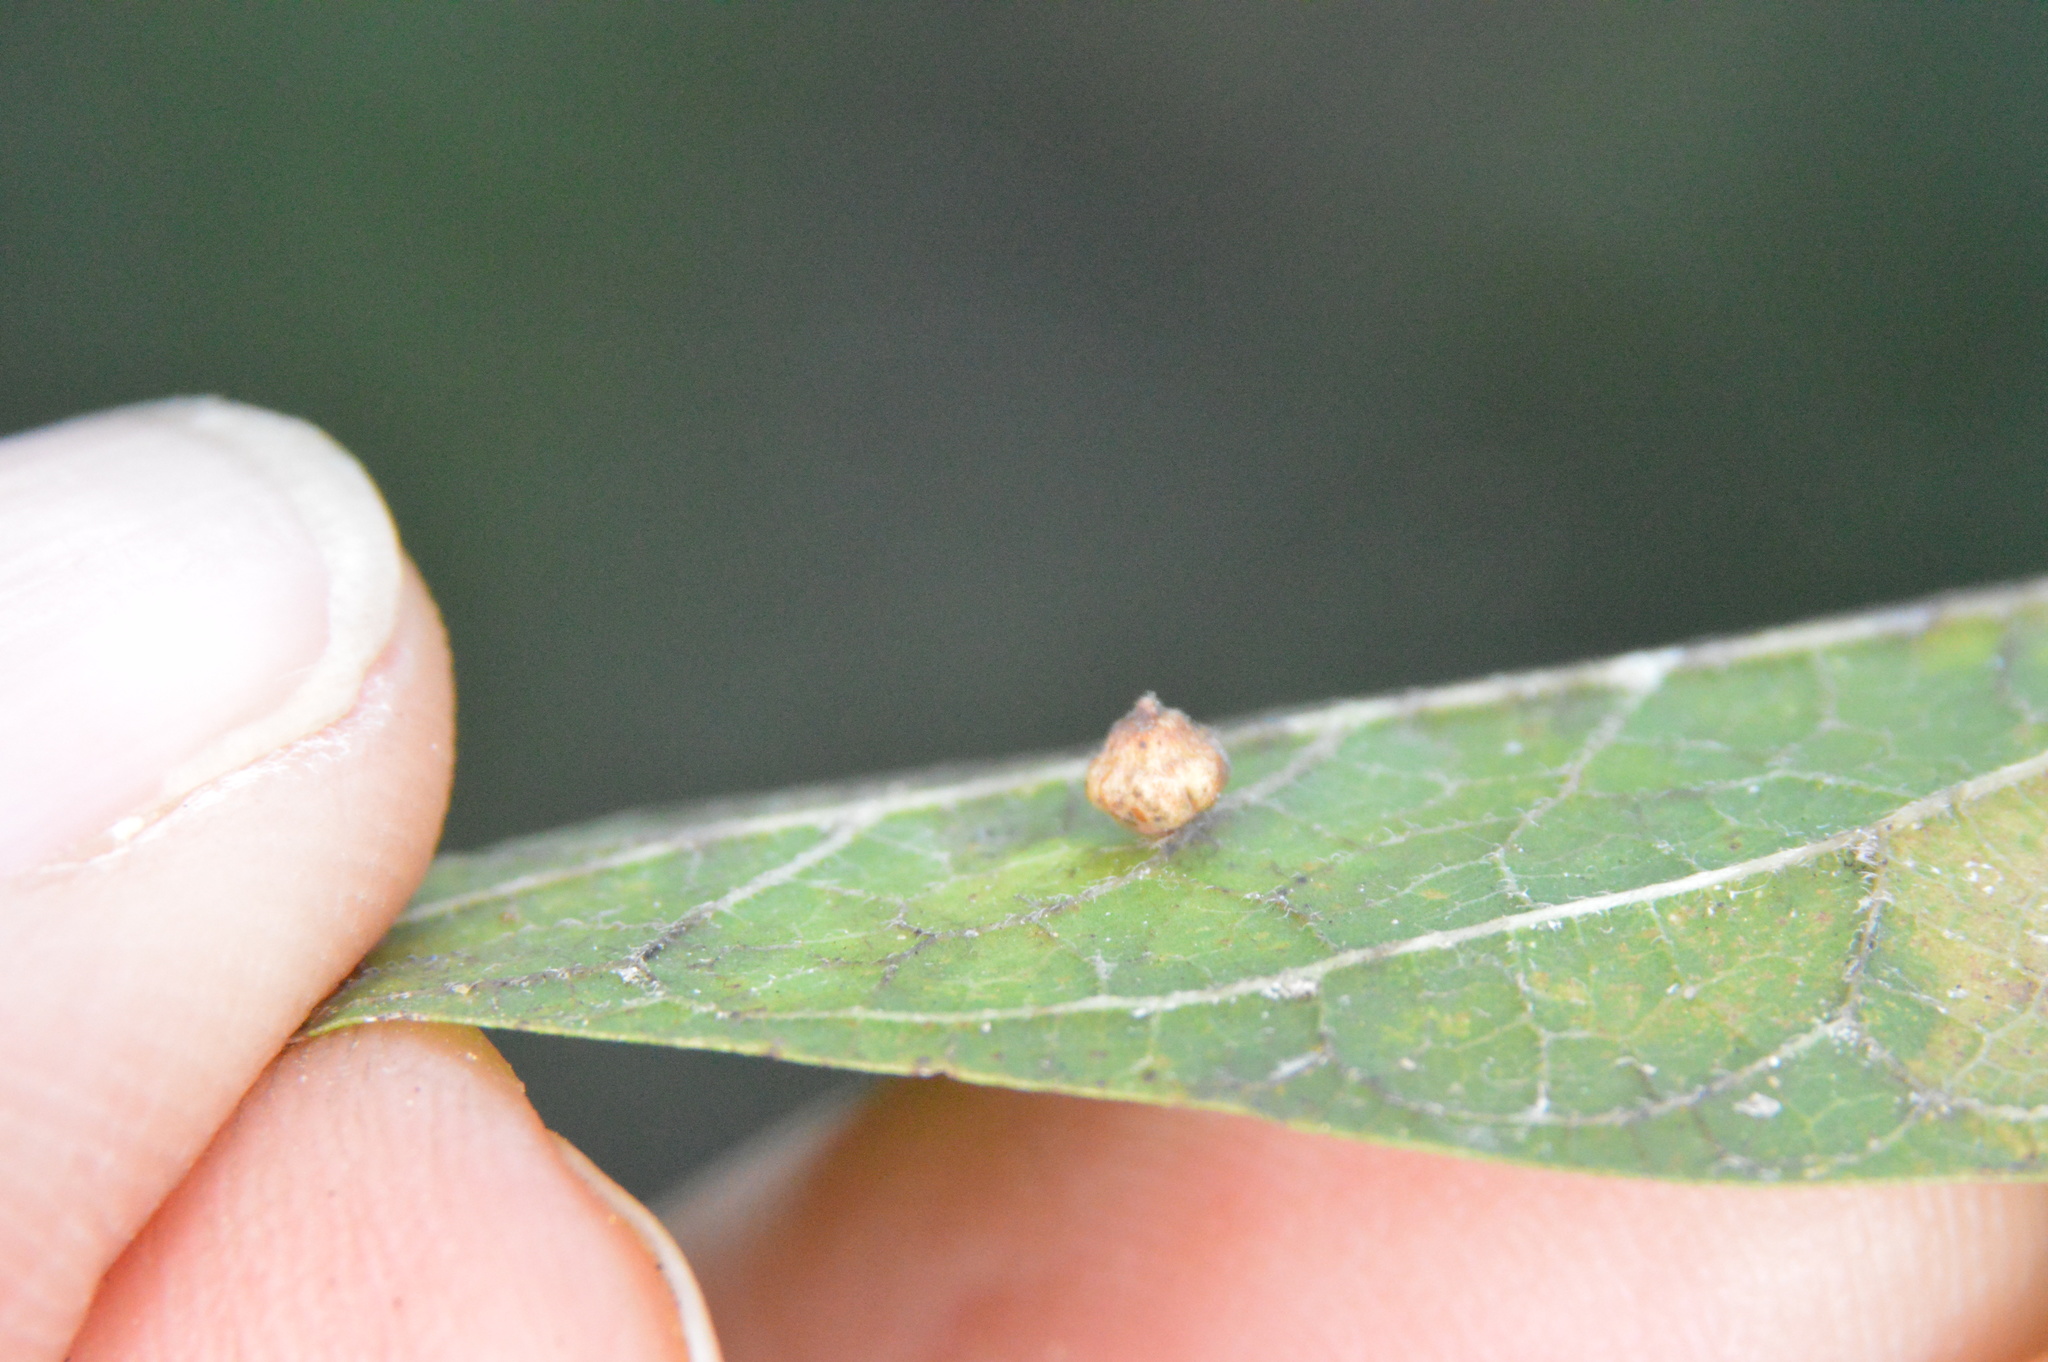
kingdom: Animalia
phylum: Arthropoda
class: Insecta
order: Diptera
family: Cecidomyiidae
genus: Celticecis
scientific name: Celticecis globosa
